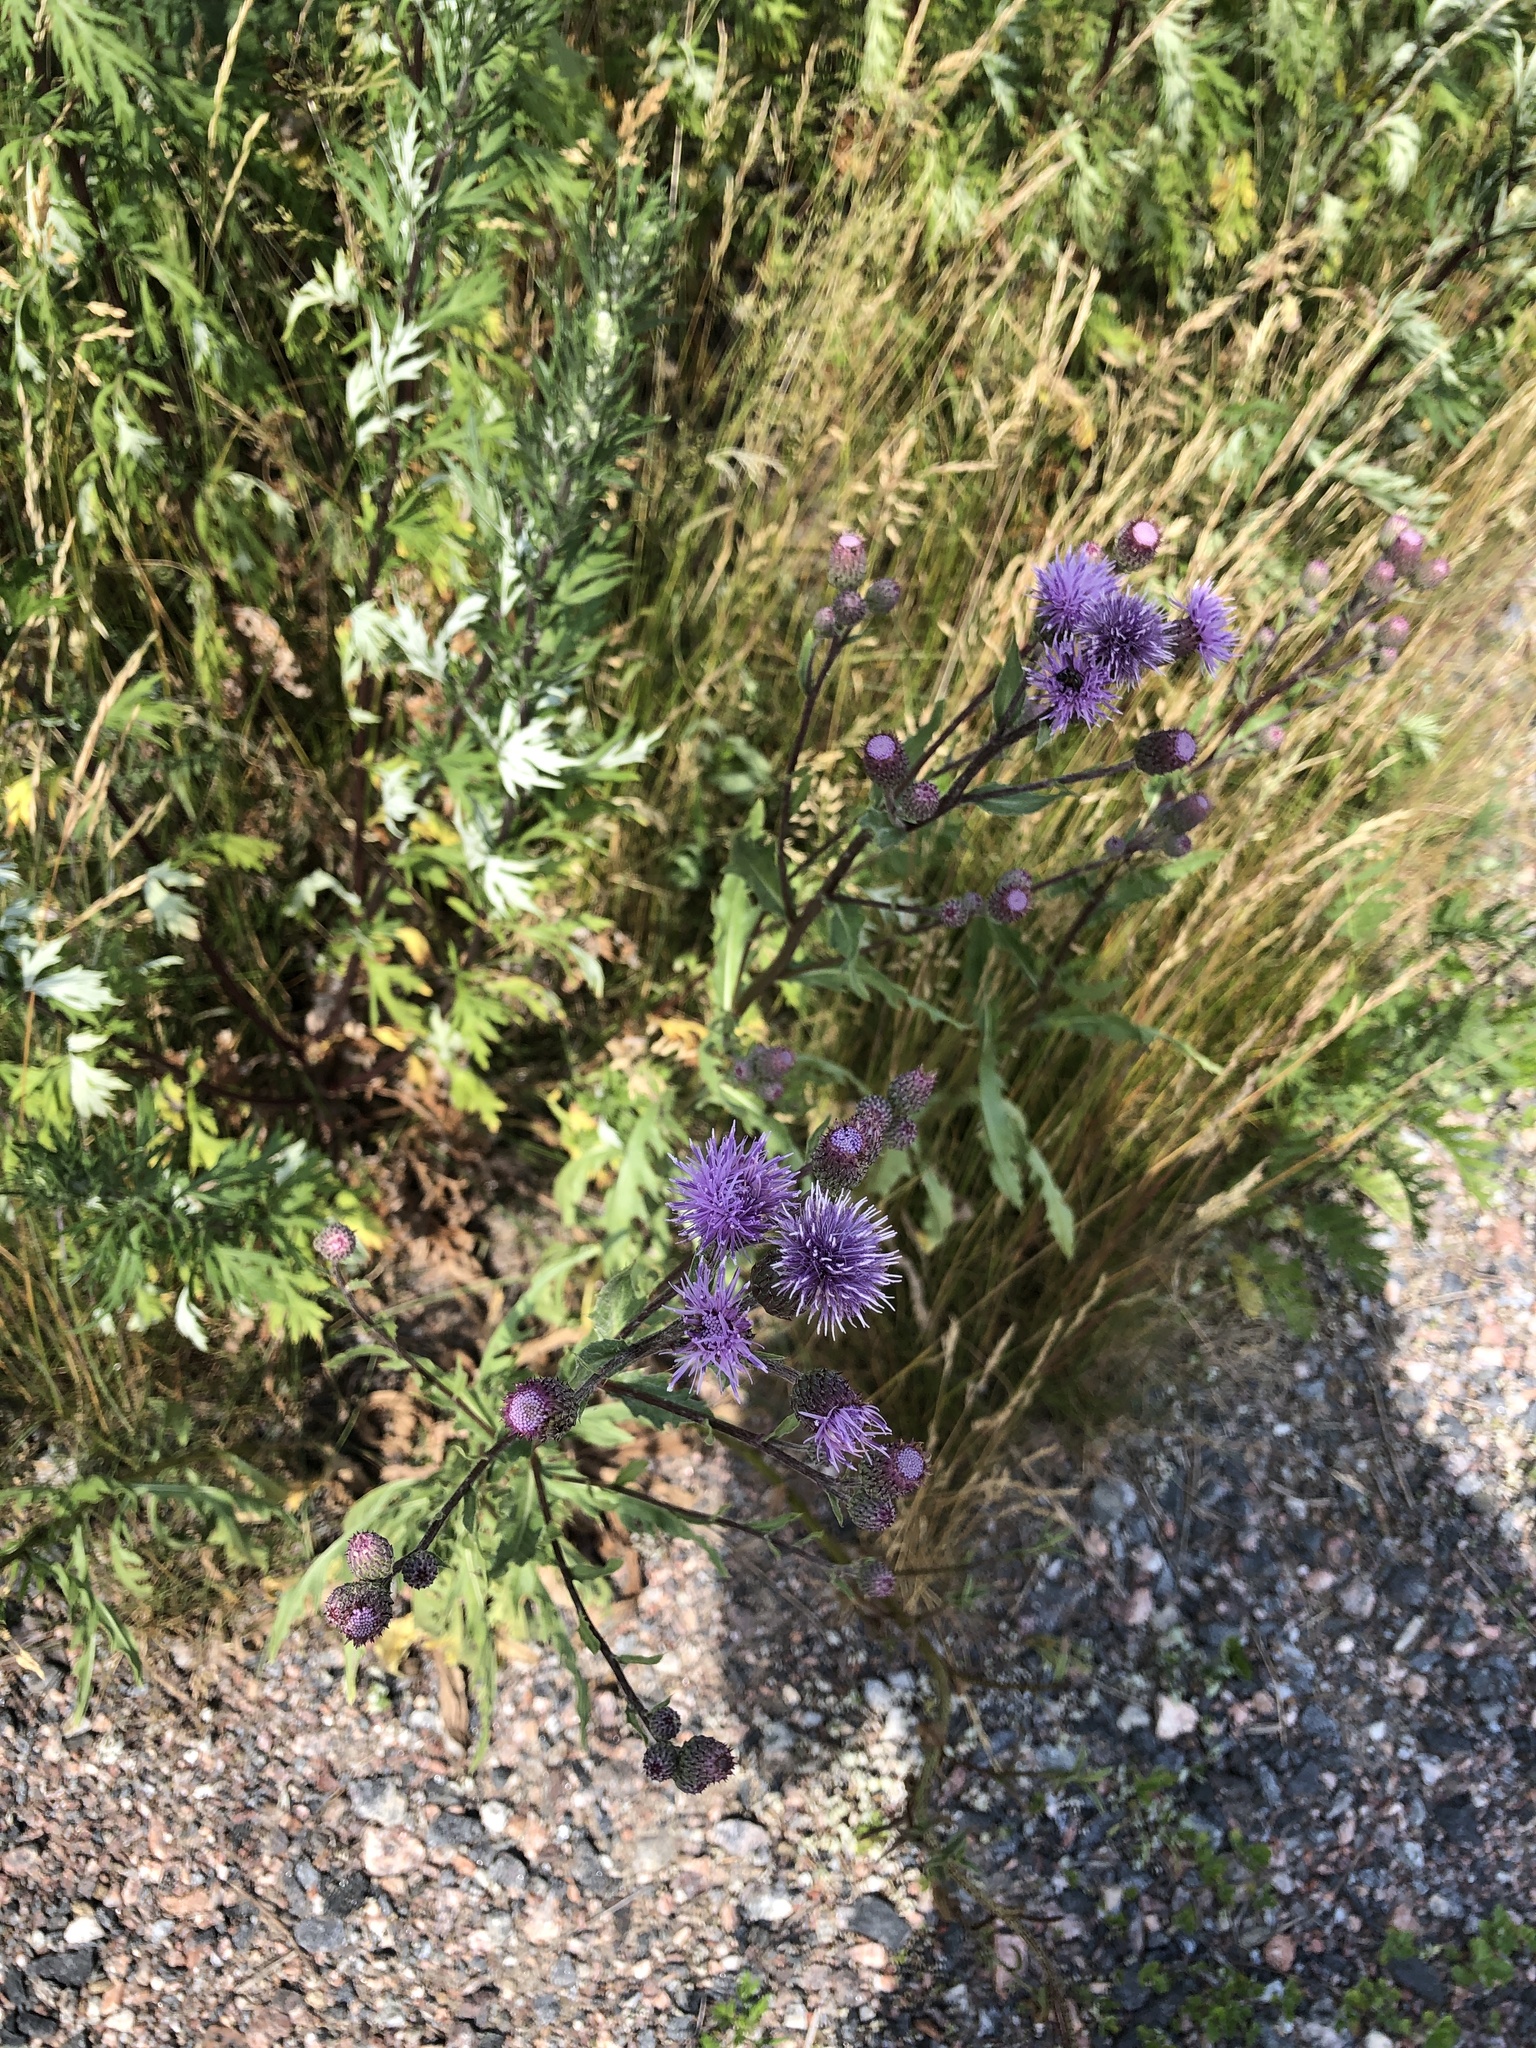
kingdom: Plantae
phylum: Tracheophyta
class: Magnoliopsida
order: Asterales
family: Asteraceae
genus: Cirsium
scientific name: Cirsium arvense
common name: Creeping thistle
